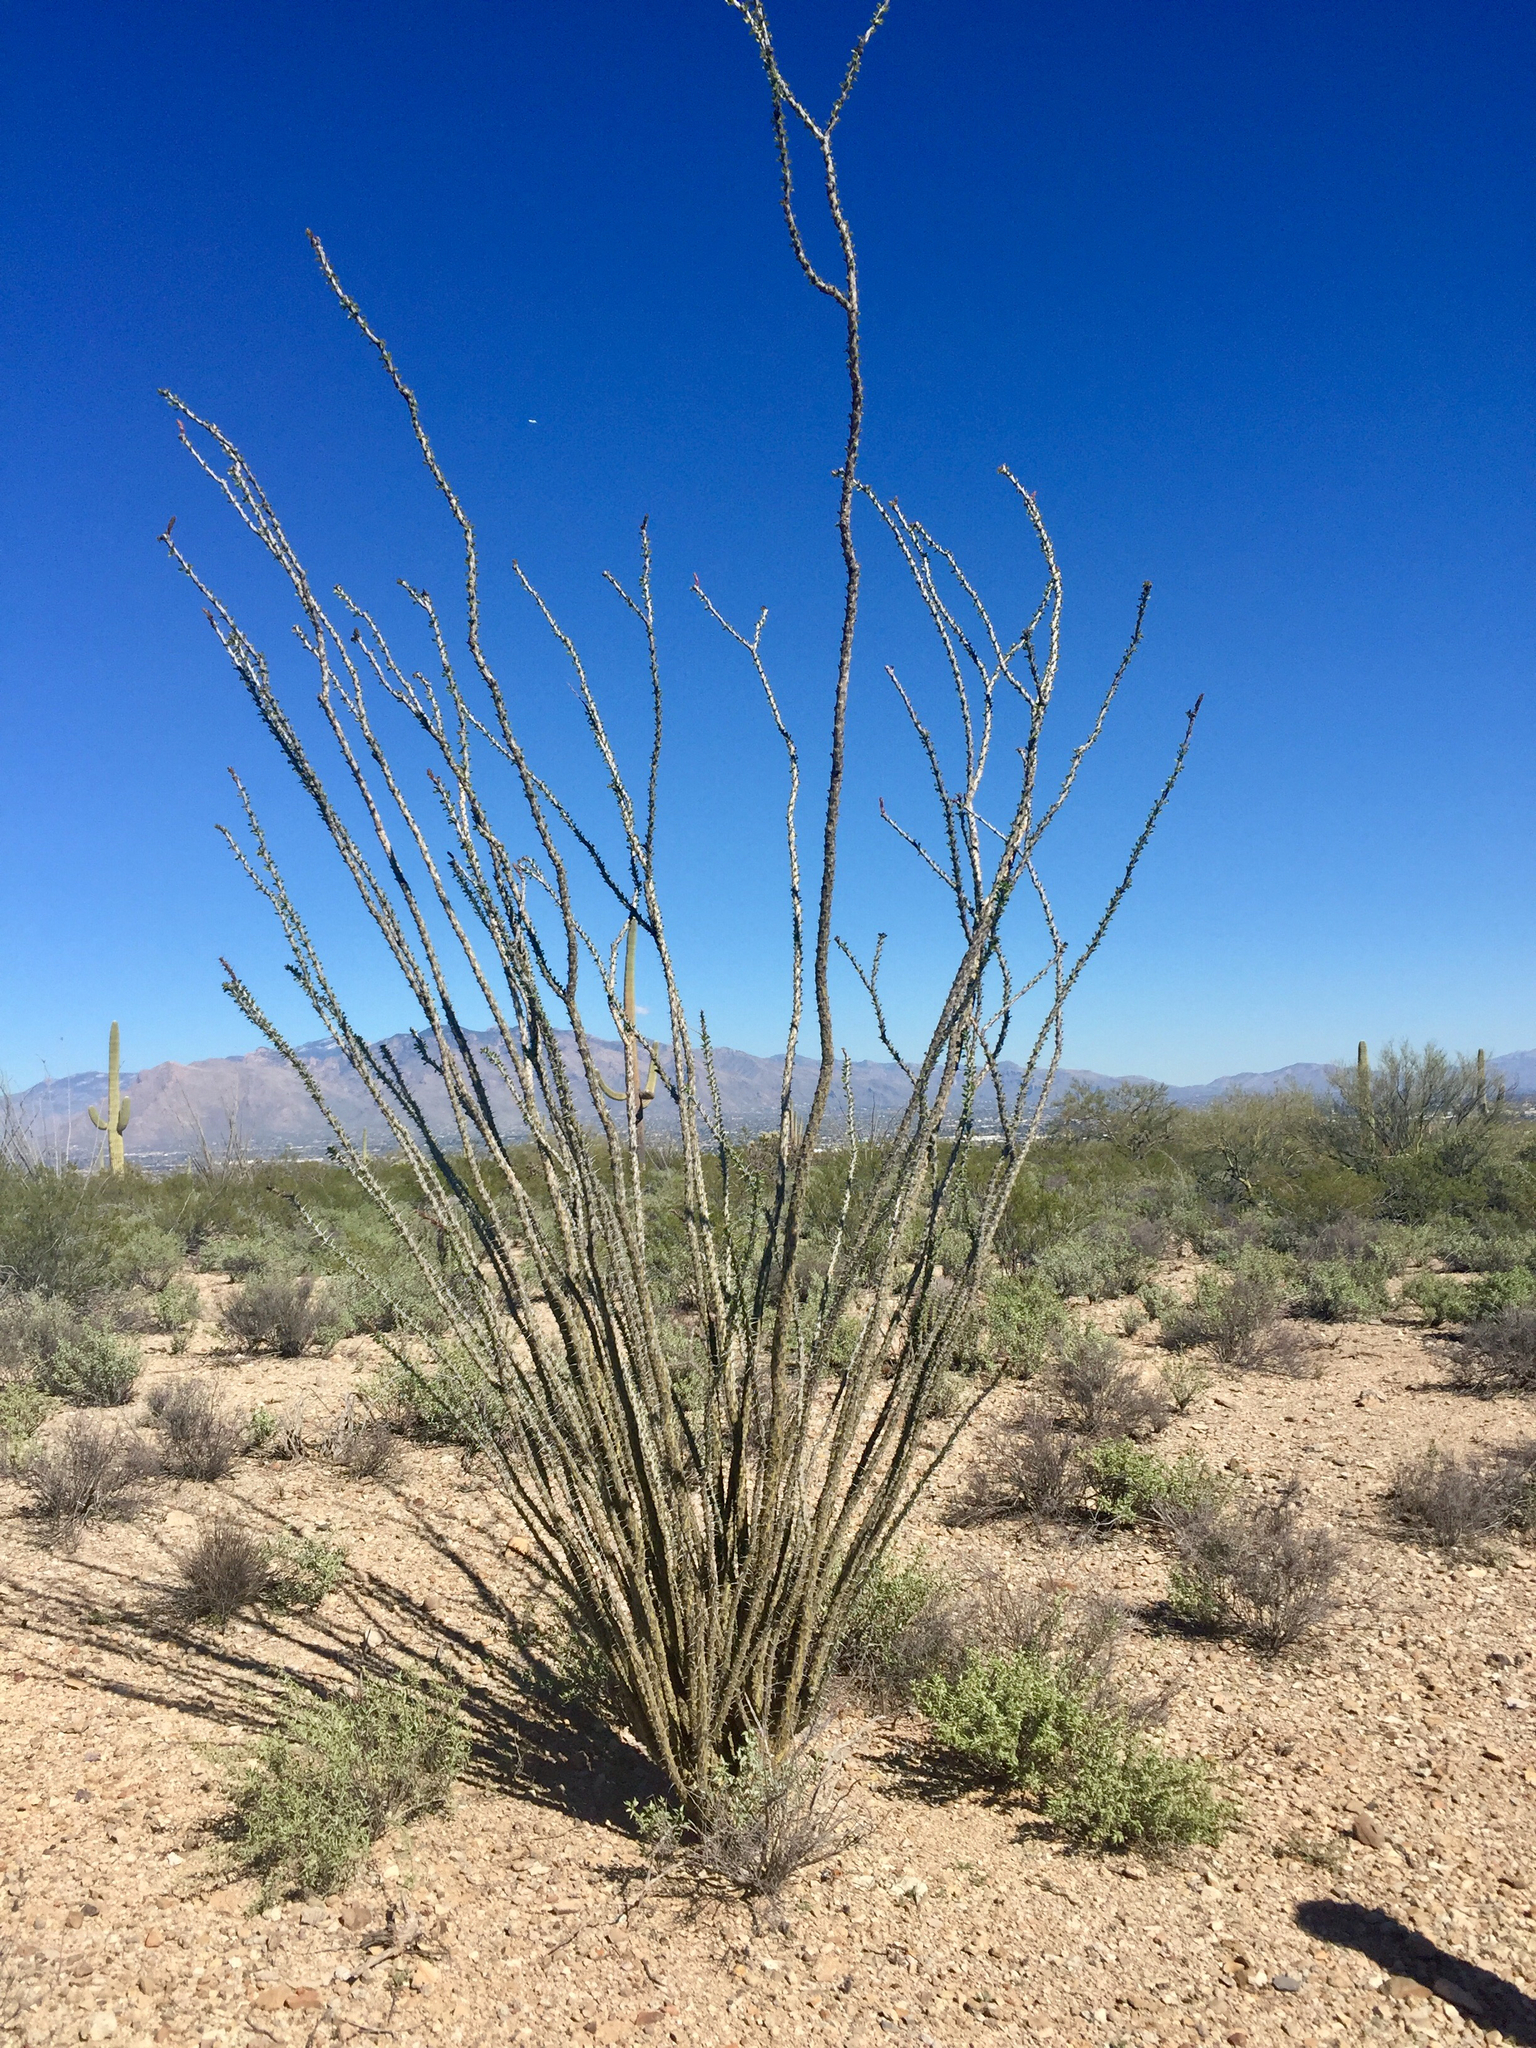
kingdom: Plantae
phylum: Tracheophyta
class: Magnoliopsida
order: Ericales
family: Fouquieriaceae
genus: Fouquieria
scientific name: Fouquieria splendens
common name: Vine-cactus
